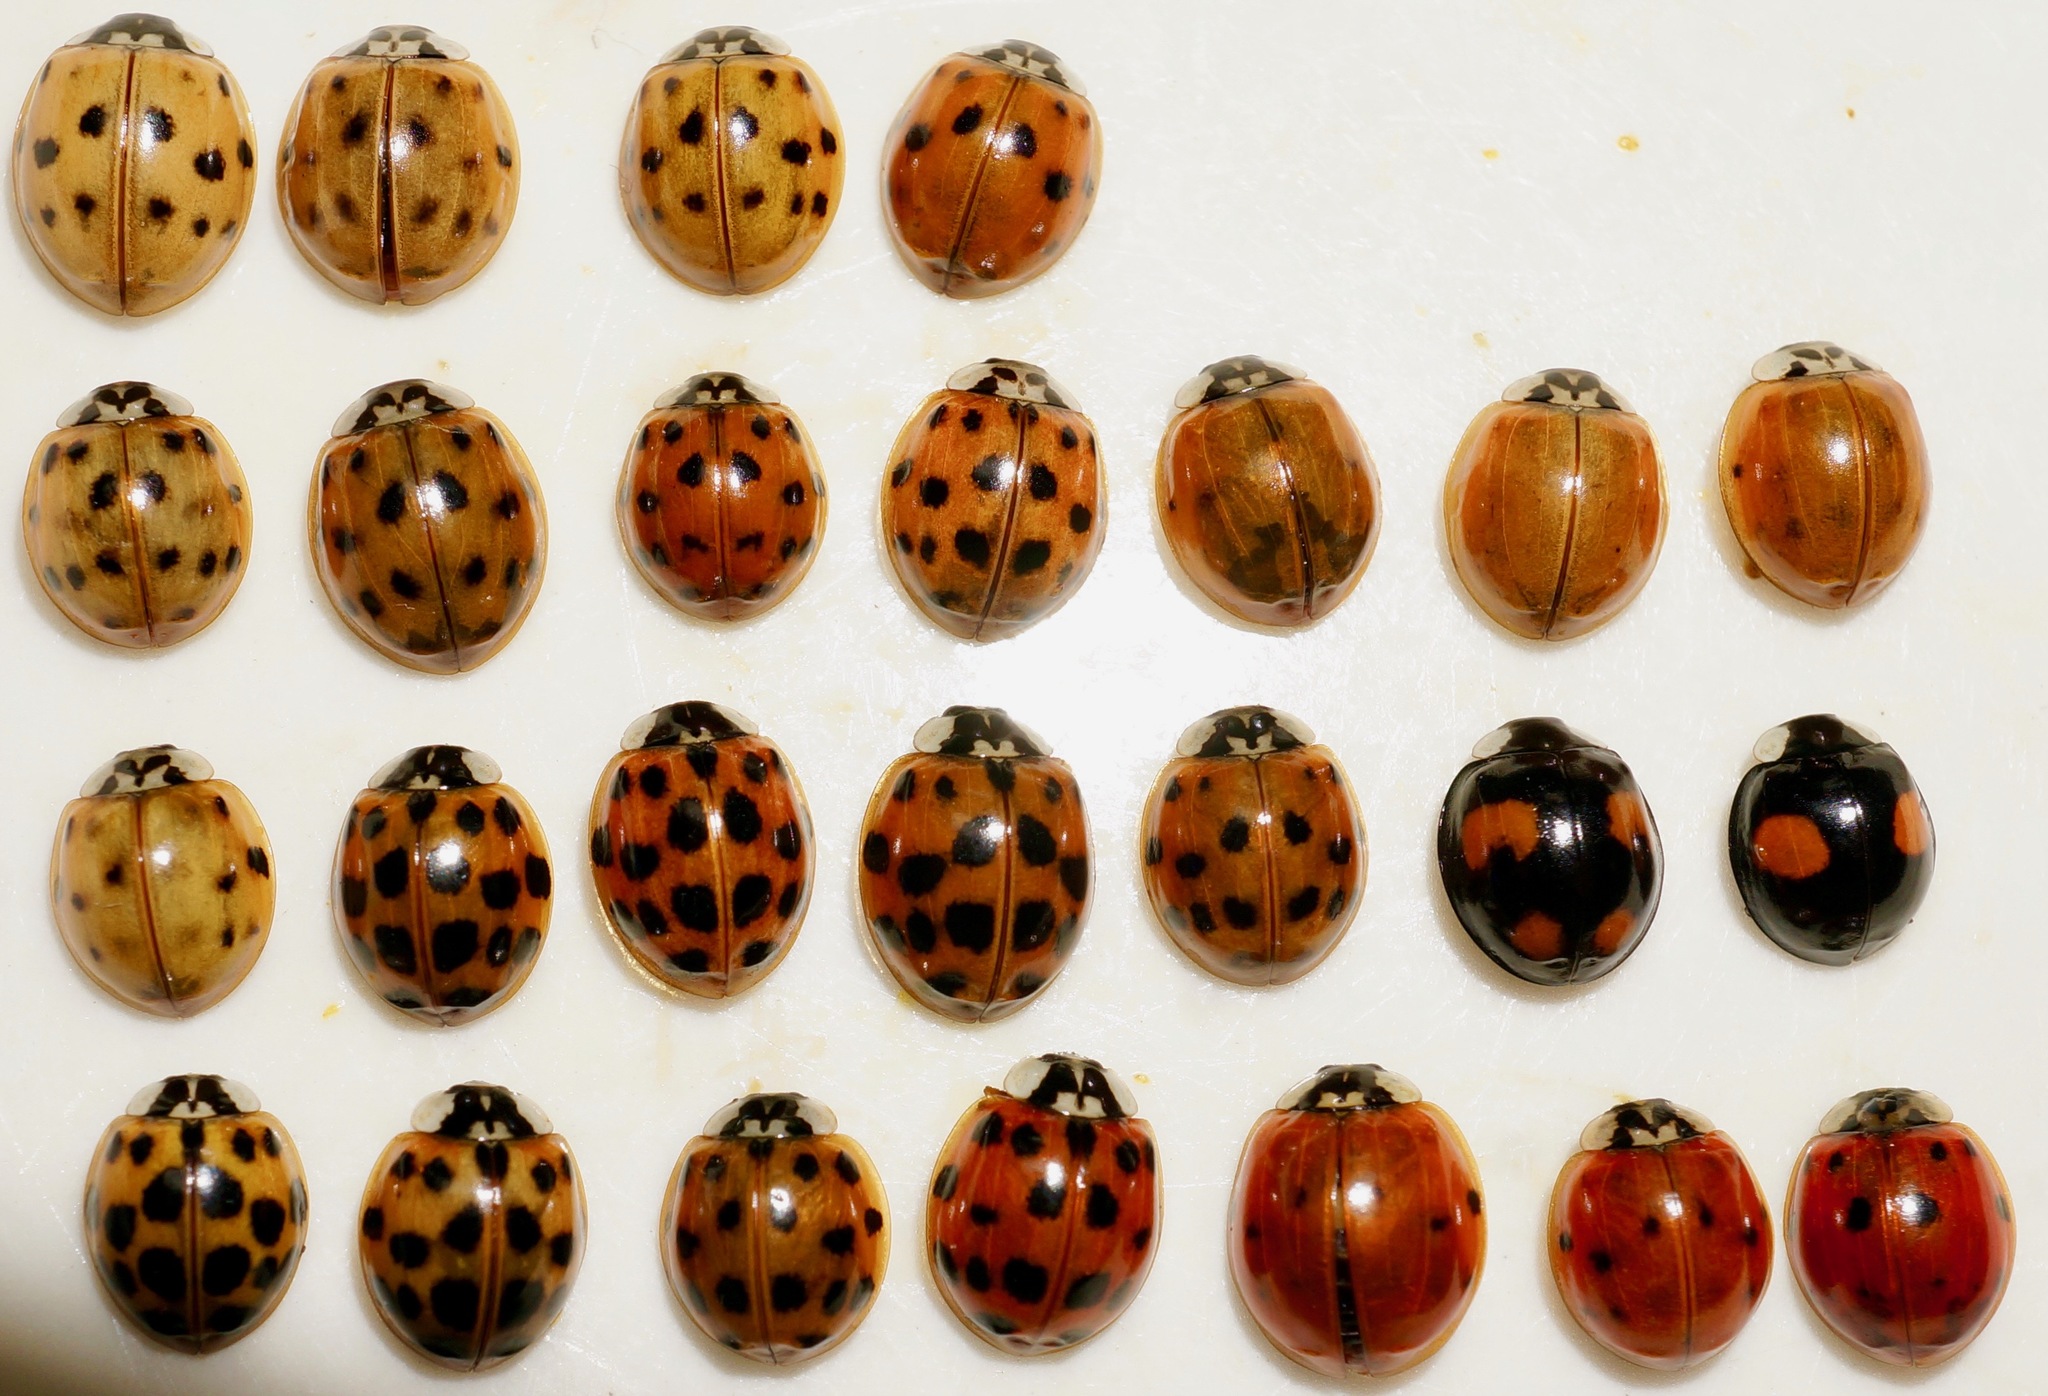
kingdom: Animalia
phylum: Arthropoda
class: Insecta
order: Coleoptera
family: Coccinellidae
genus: Harmonia
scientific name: Harmonia axyridis
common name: Harlequin ladybird
